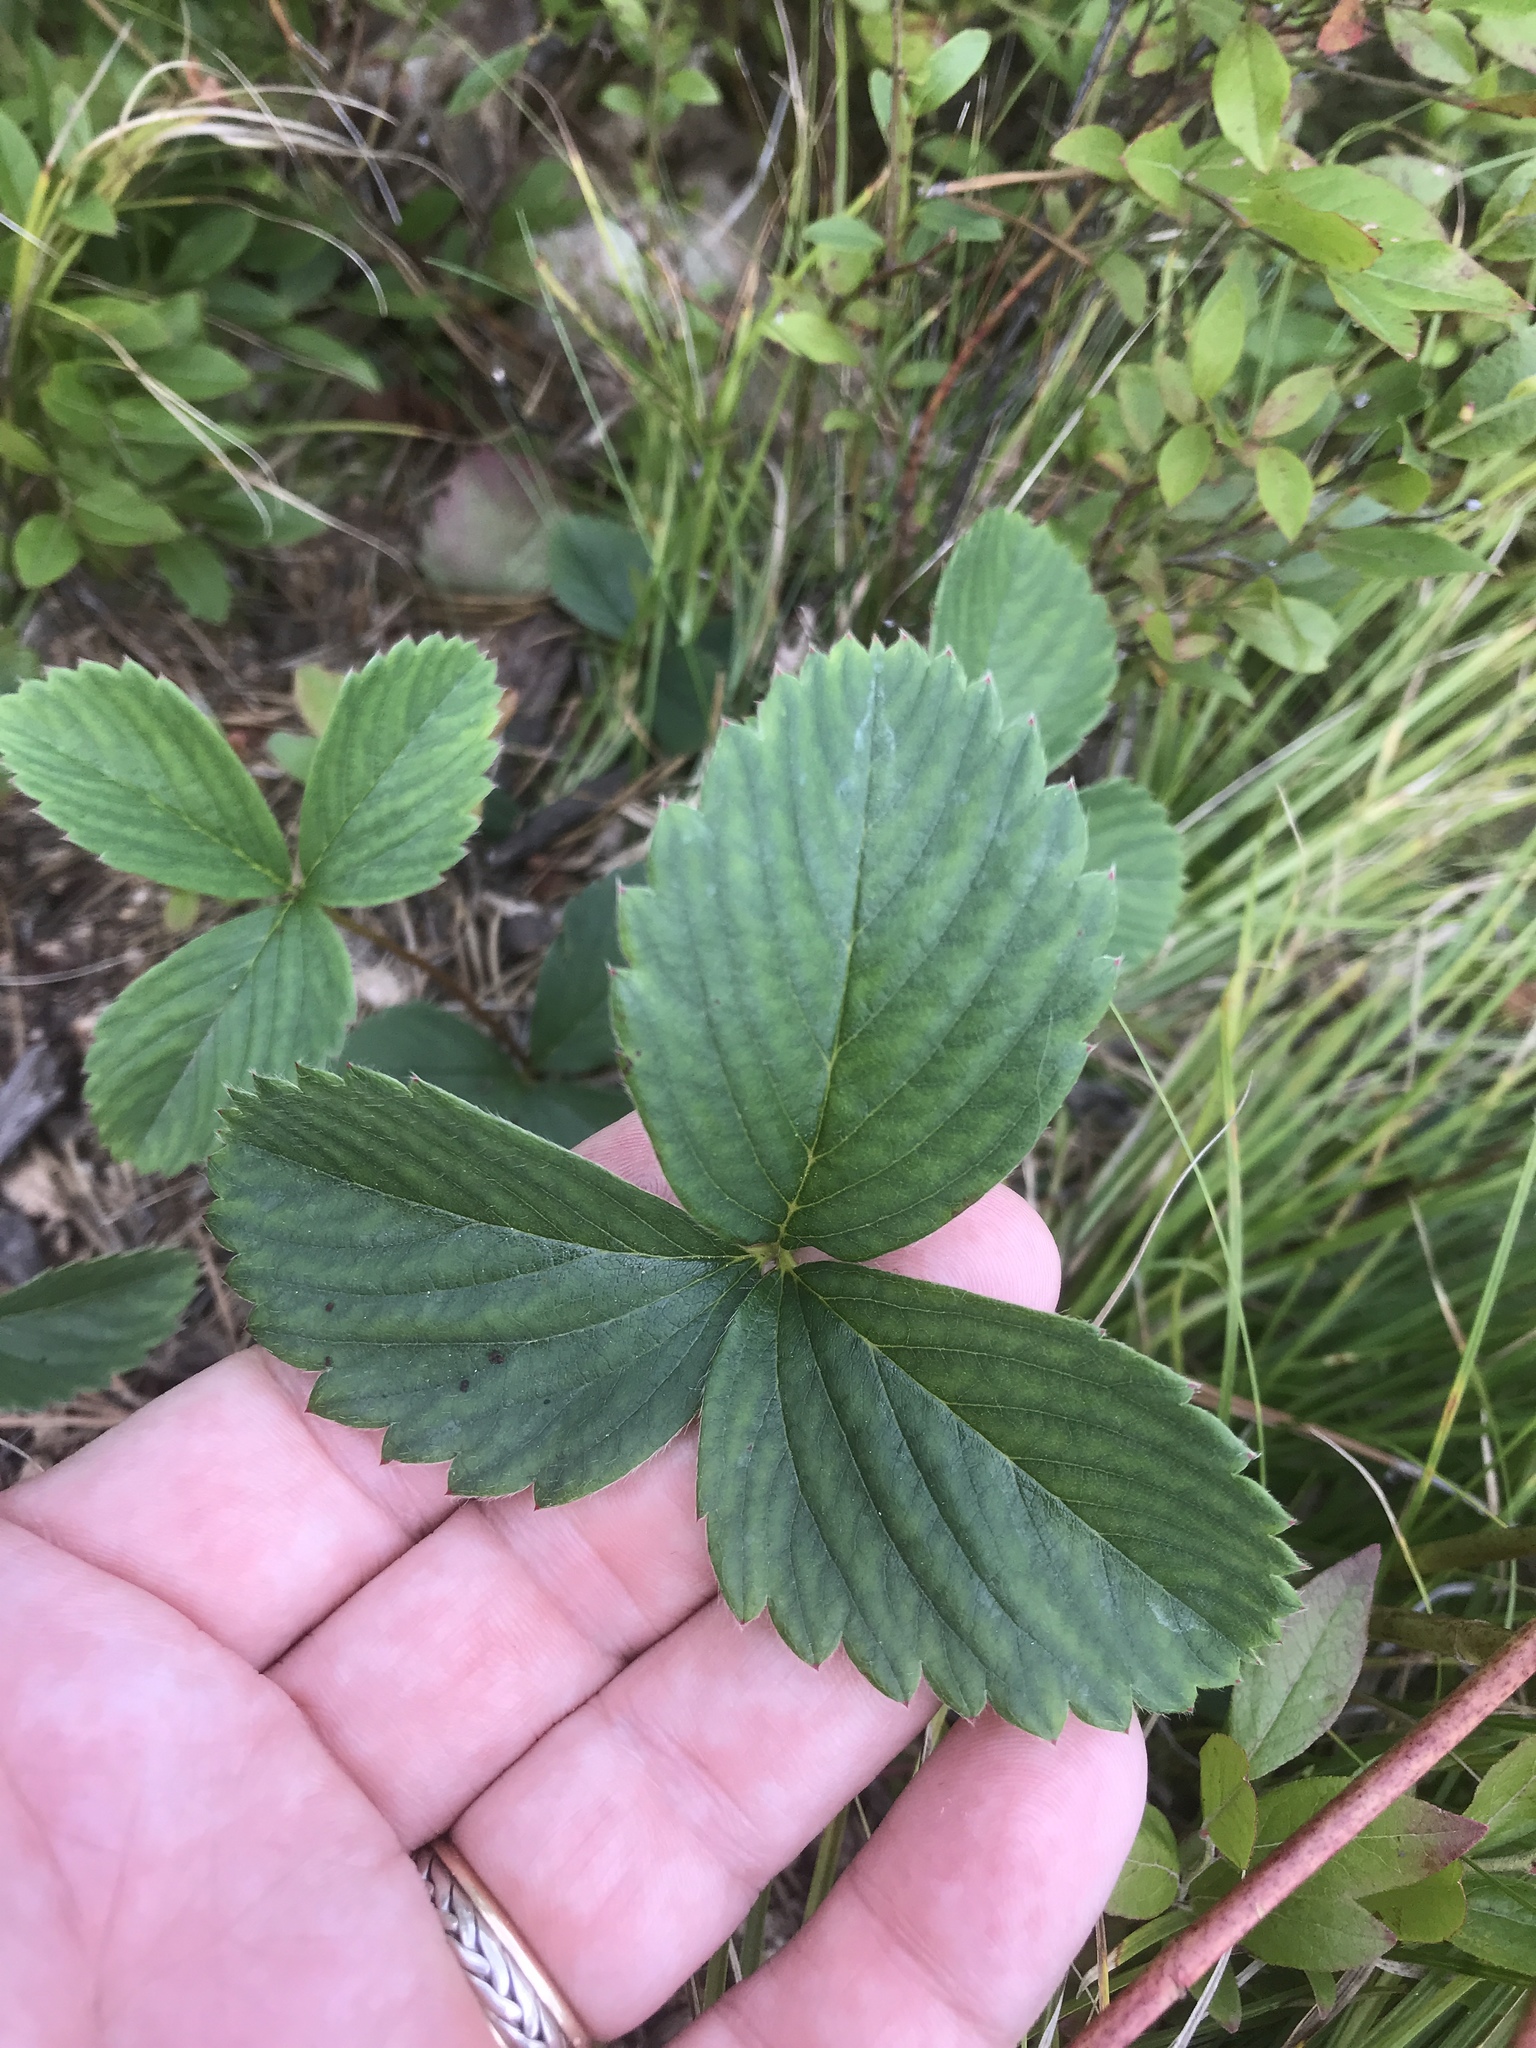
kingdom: Plantae
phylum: Tracheophyta
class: Magnoliopsida
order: Rosales
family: Rosaceae
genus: Fragaria
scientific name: Fragaria virginiana
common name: Thickleaved wild strawberry
